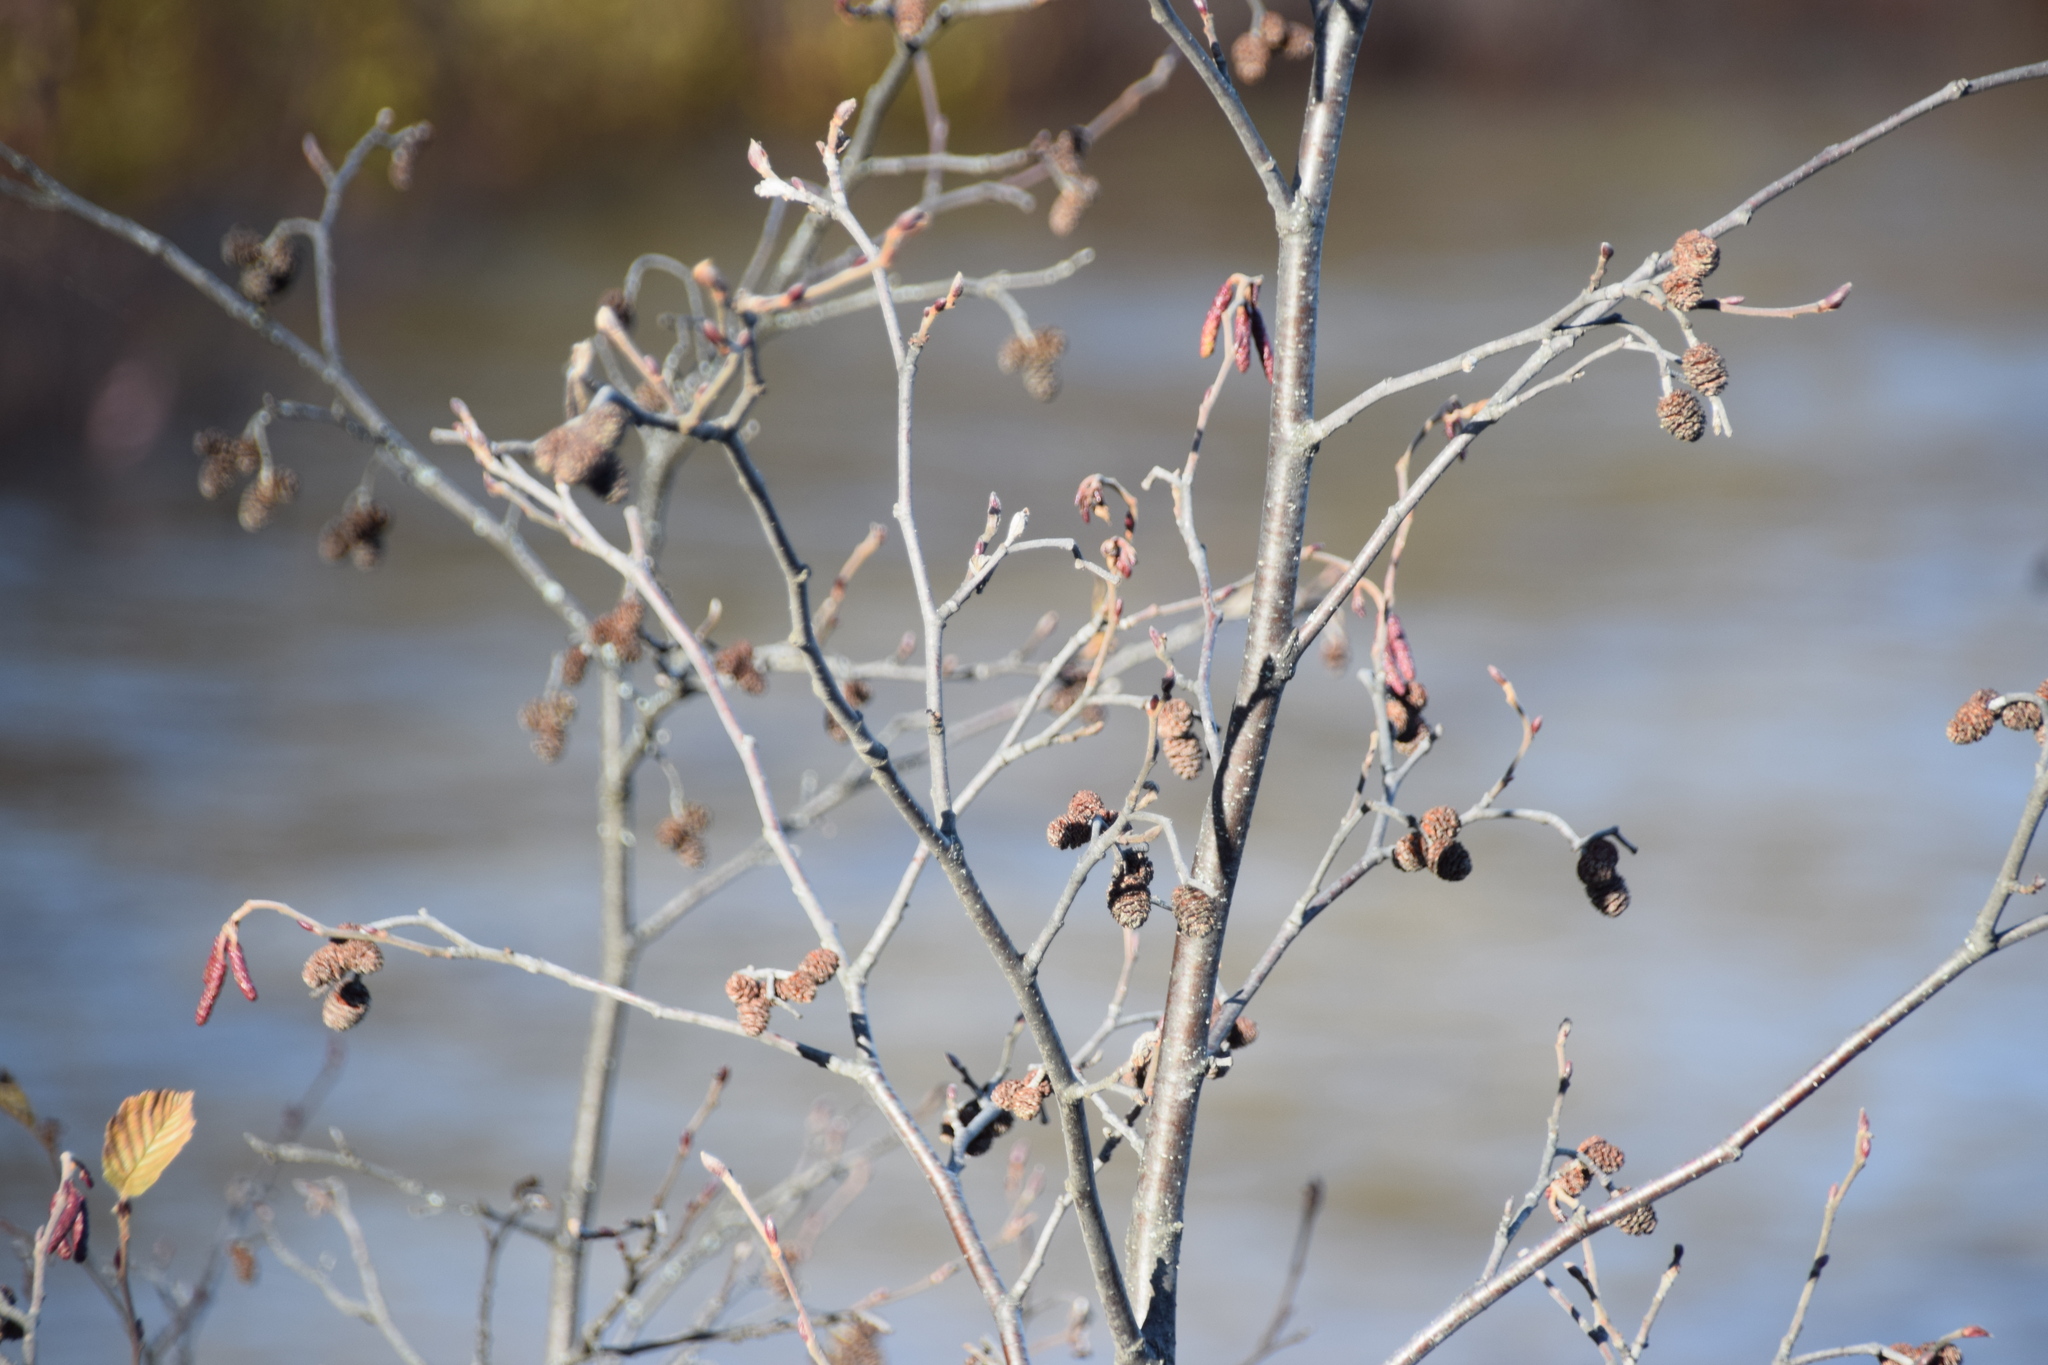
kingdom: Plantae
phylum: Tracheophyta
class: Magnoliopsida
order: Fagales
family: Betulaceae
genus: Alnus
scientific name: Alnus incana
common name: Grey alder
